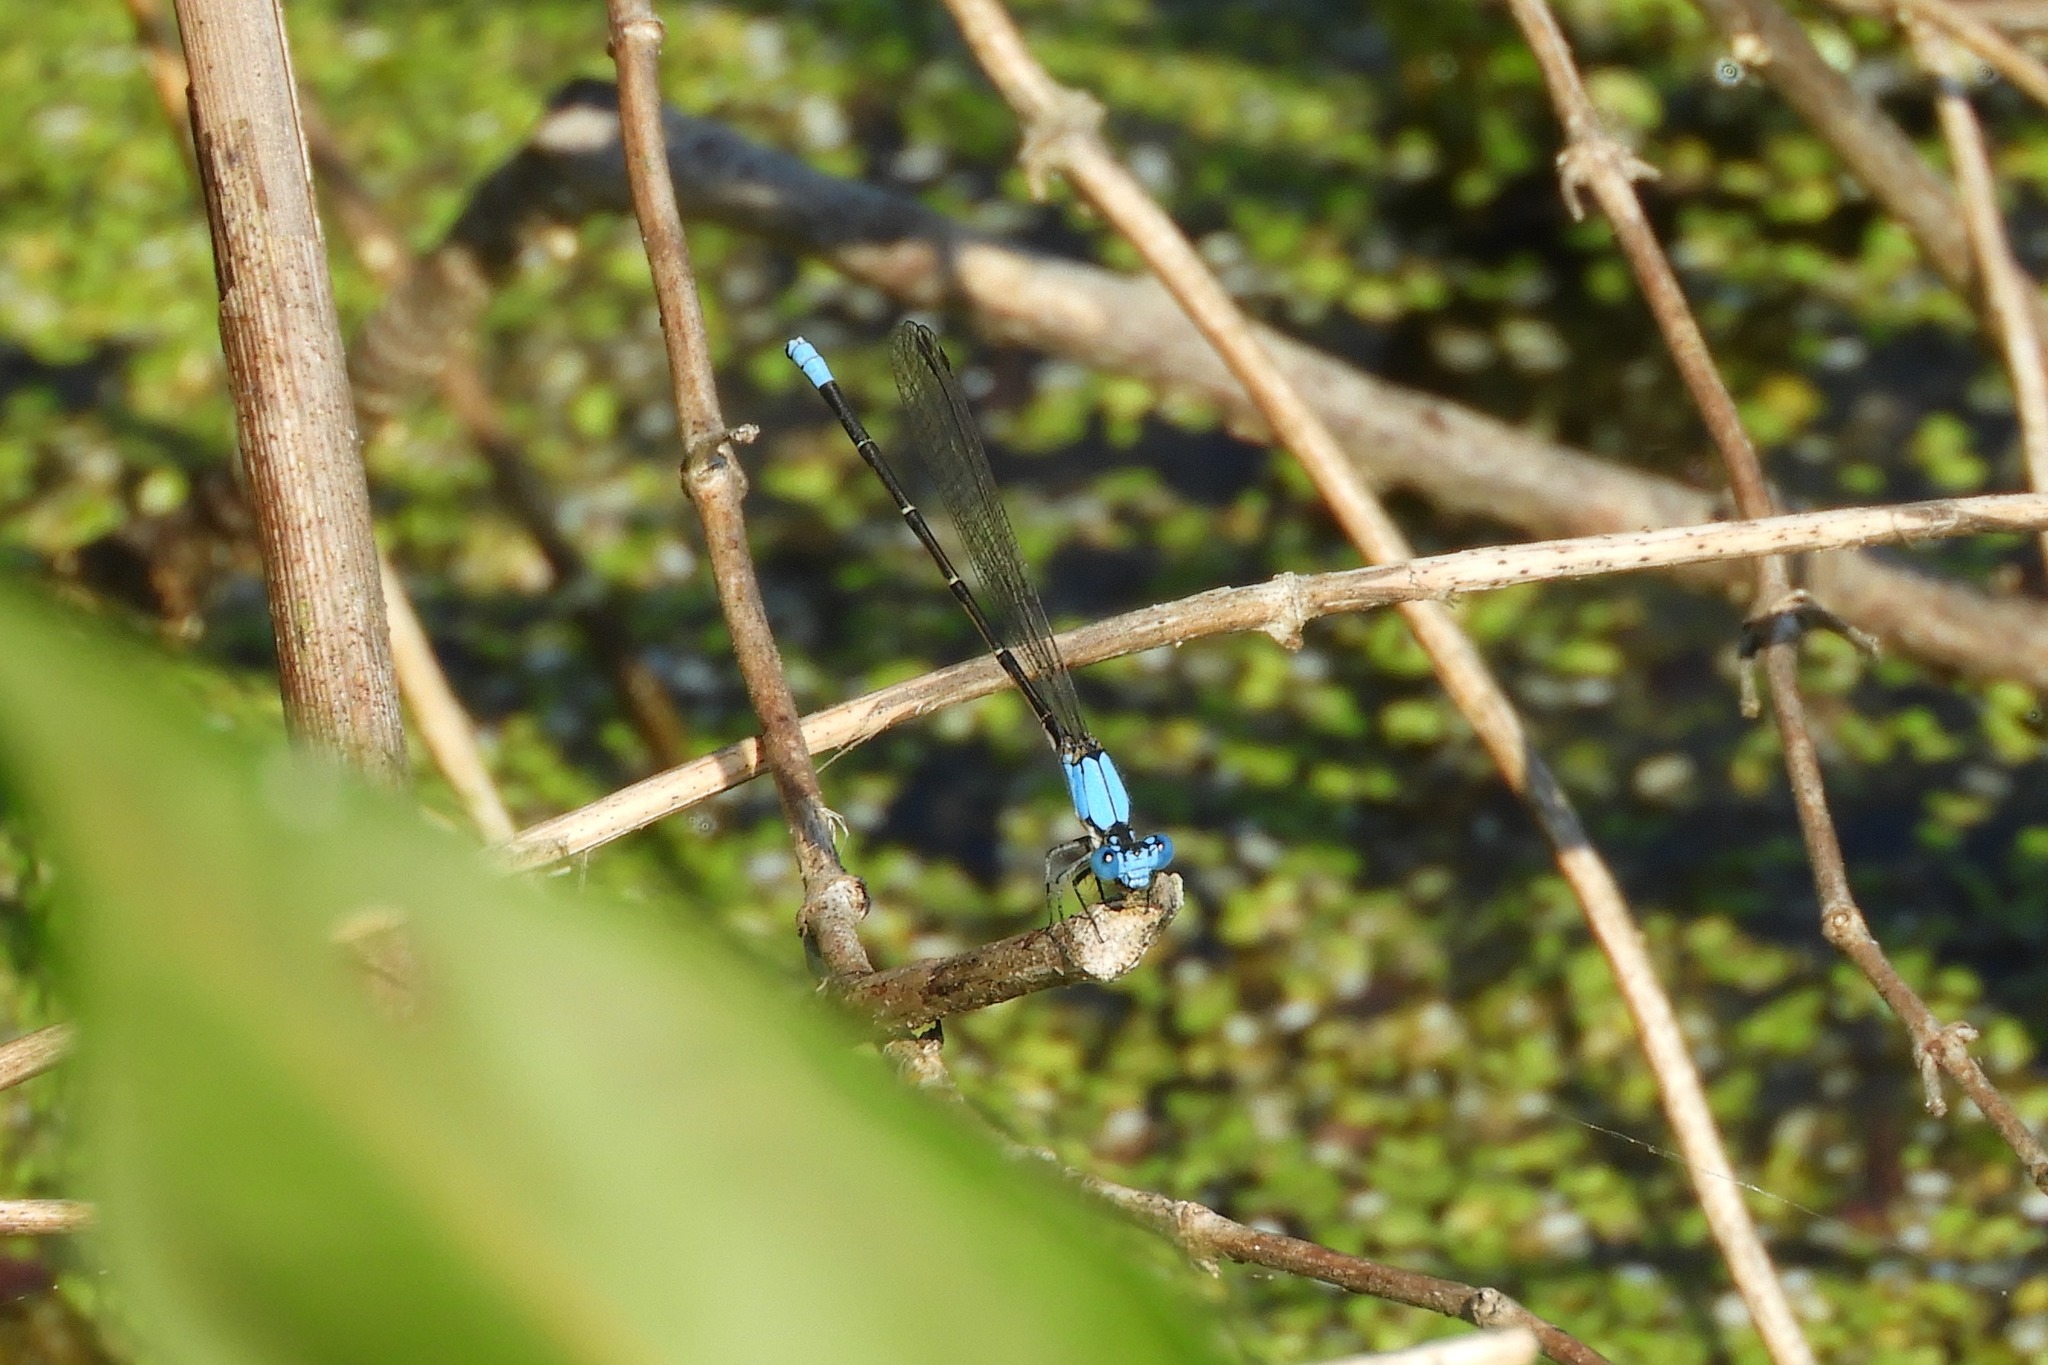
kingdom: Animalia
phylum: Arthropoda
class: Insecta
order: Odonata
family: Coenagrionidae
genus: Argia
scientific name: Argia apicalis
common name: Blue-fronted dancer
